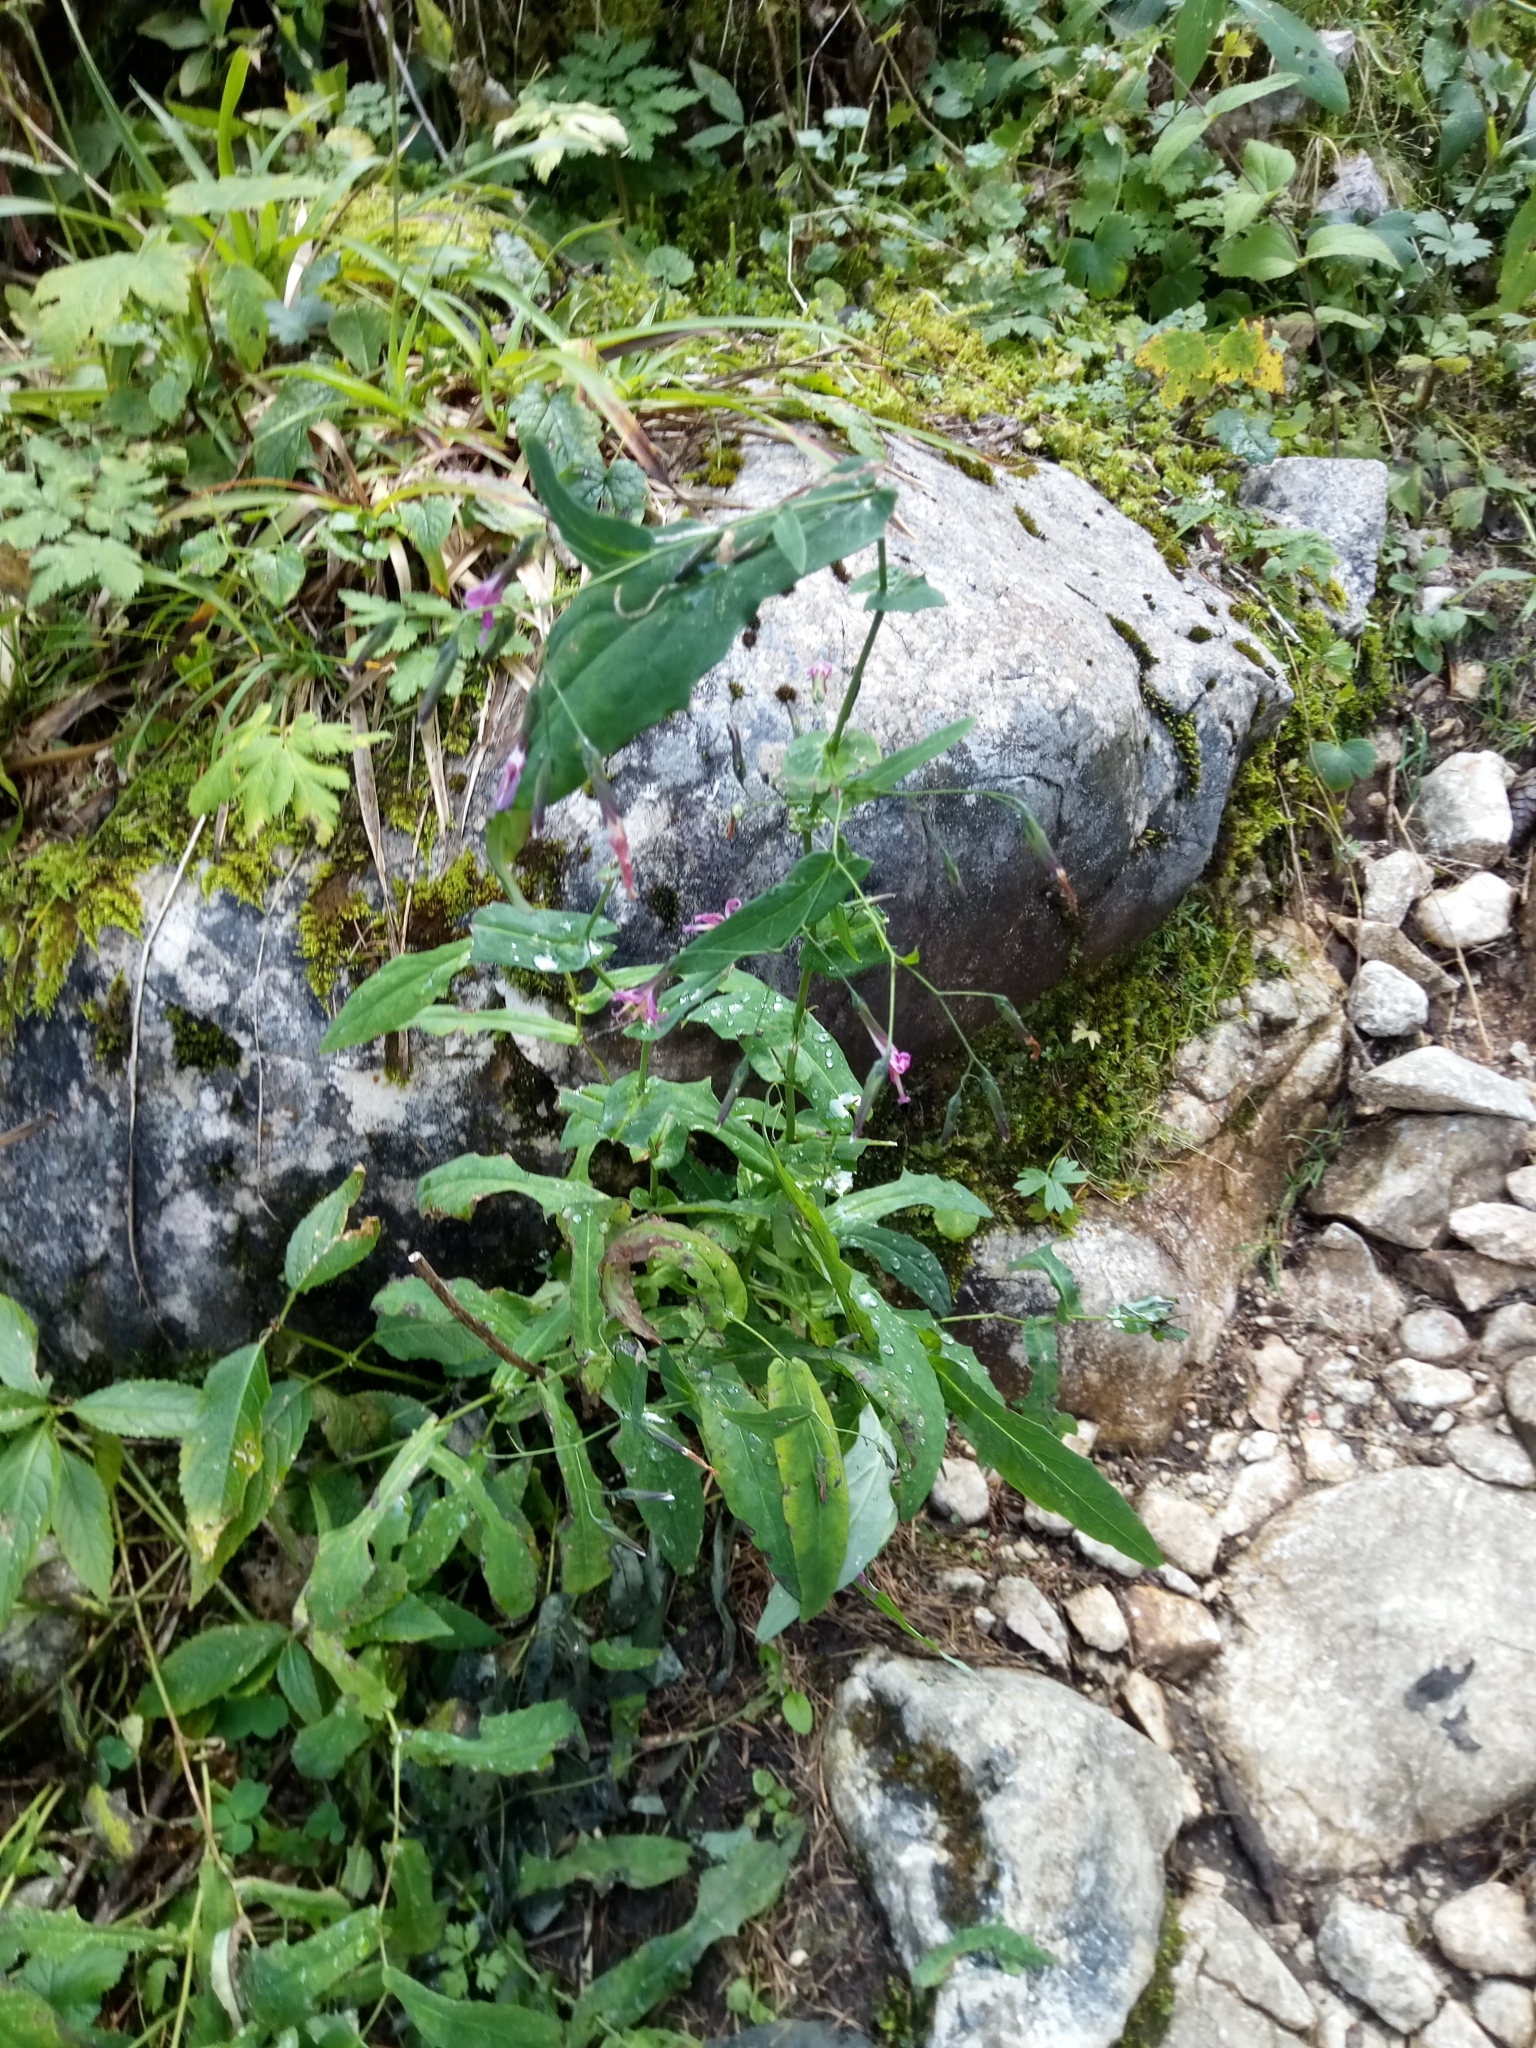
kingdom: Plantae
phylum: Tracheophyta
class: Magnoliopsida
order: Asterales
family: Asteraceae
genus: Prenanthes
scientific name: Prenanthes purpurea
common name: Purple lettuce
